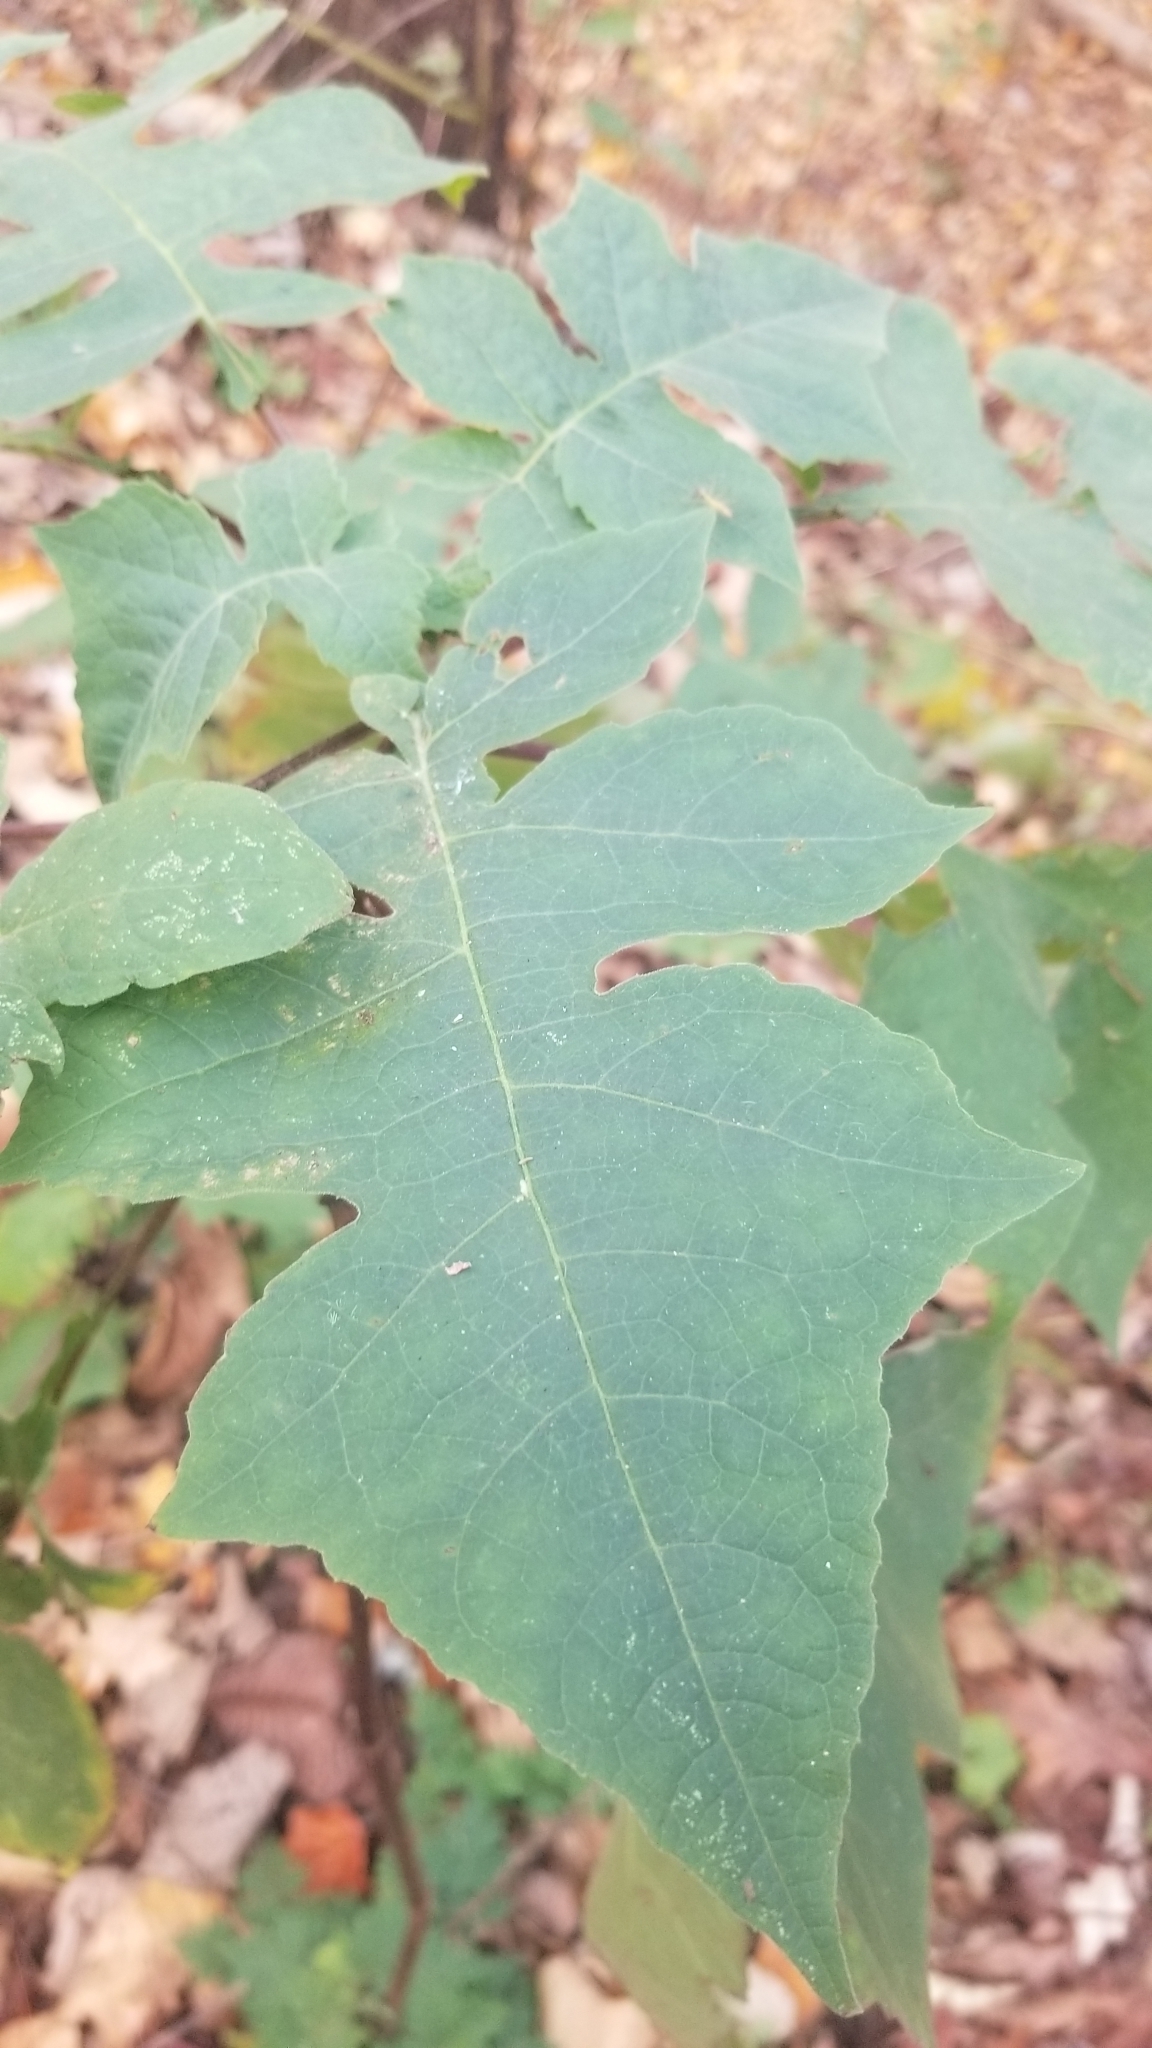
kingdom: Plantae
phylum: Tracheophyta
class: Magnoliopsida
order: Asterales
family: Asteraceae
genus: Polymnia
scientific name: Polymnia canadensis
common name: Pale-flowered leafcup
